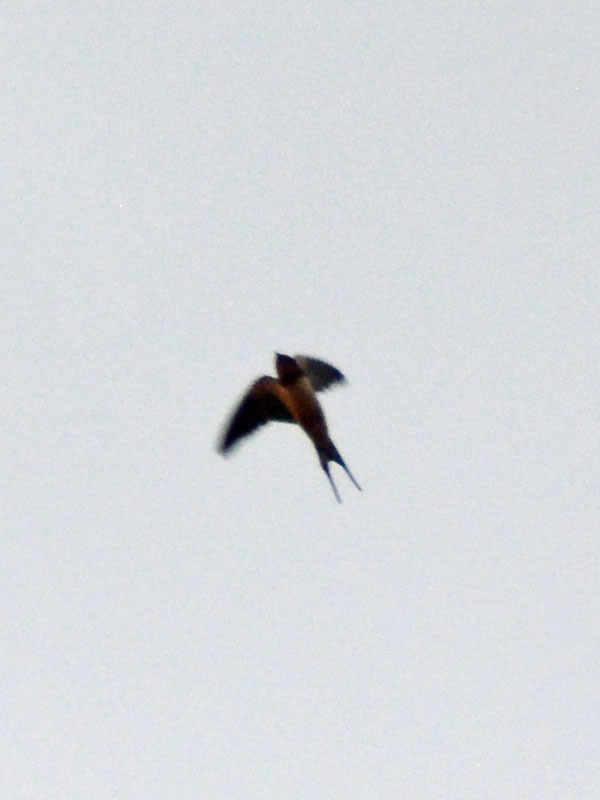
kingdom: Animalia
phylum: Chordata
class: Aves
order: Passeriformes
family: Hirundinidae
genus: Hirundo
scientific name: Hirundo rustica
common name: Barn swallow
